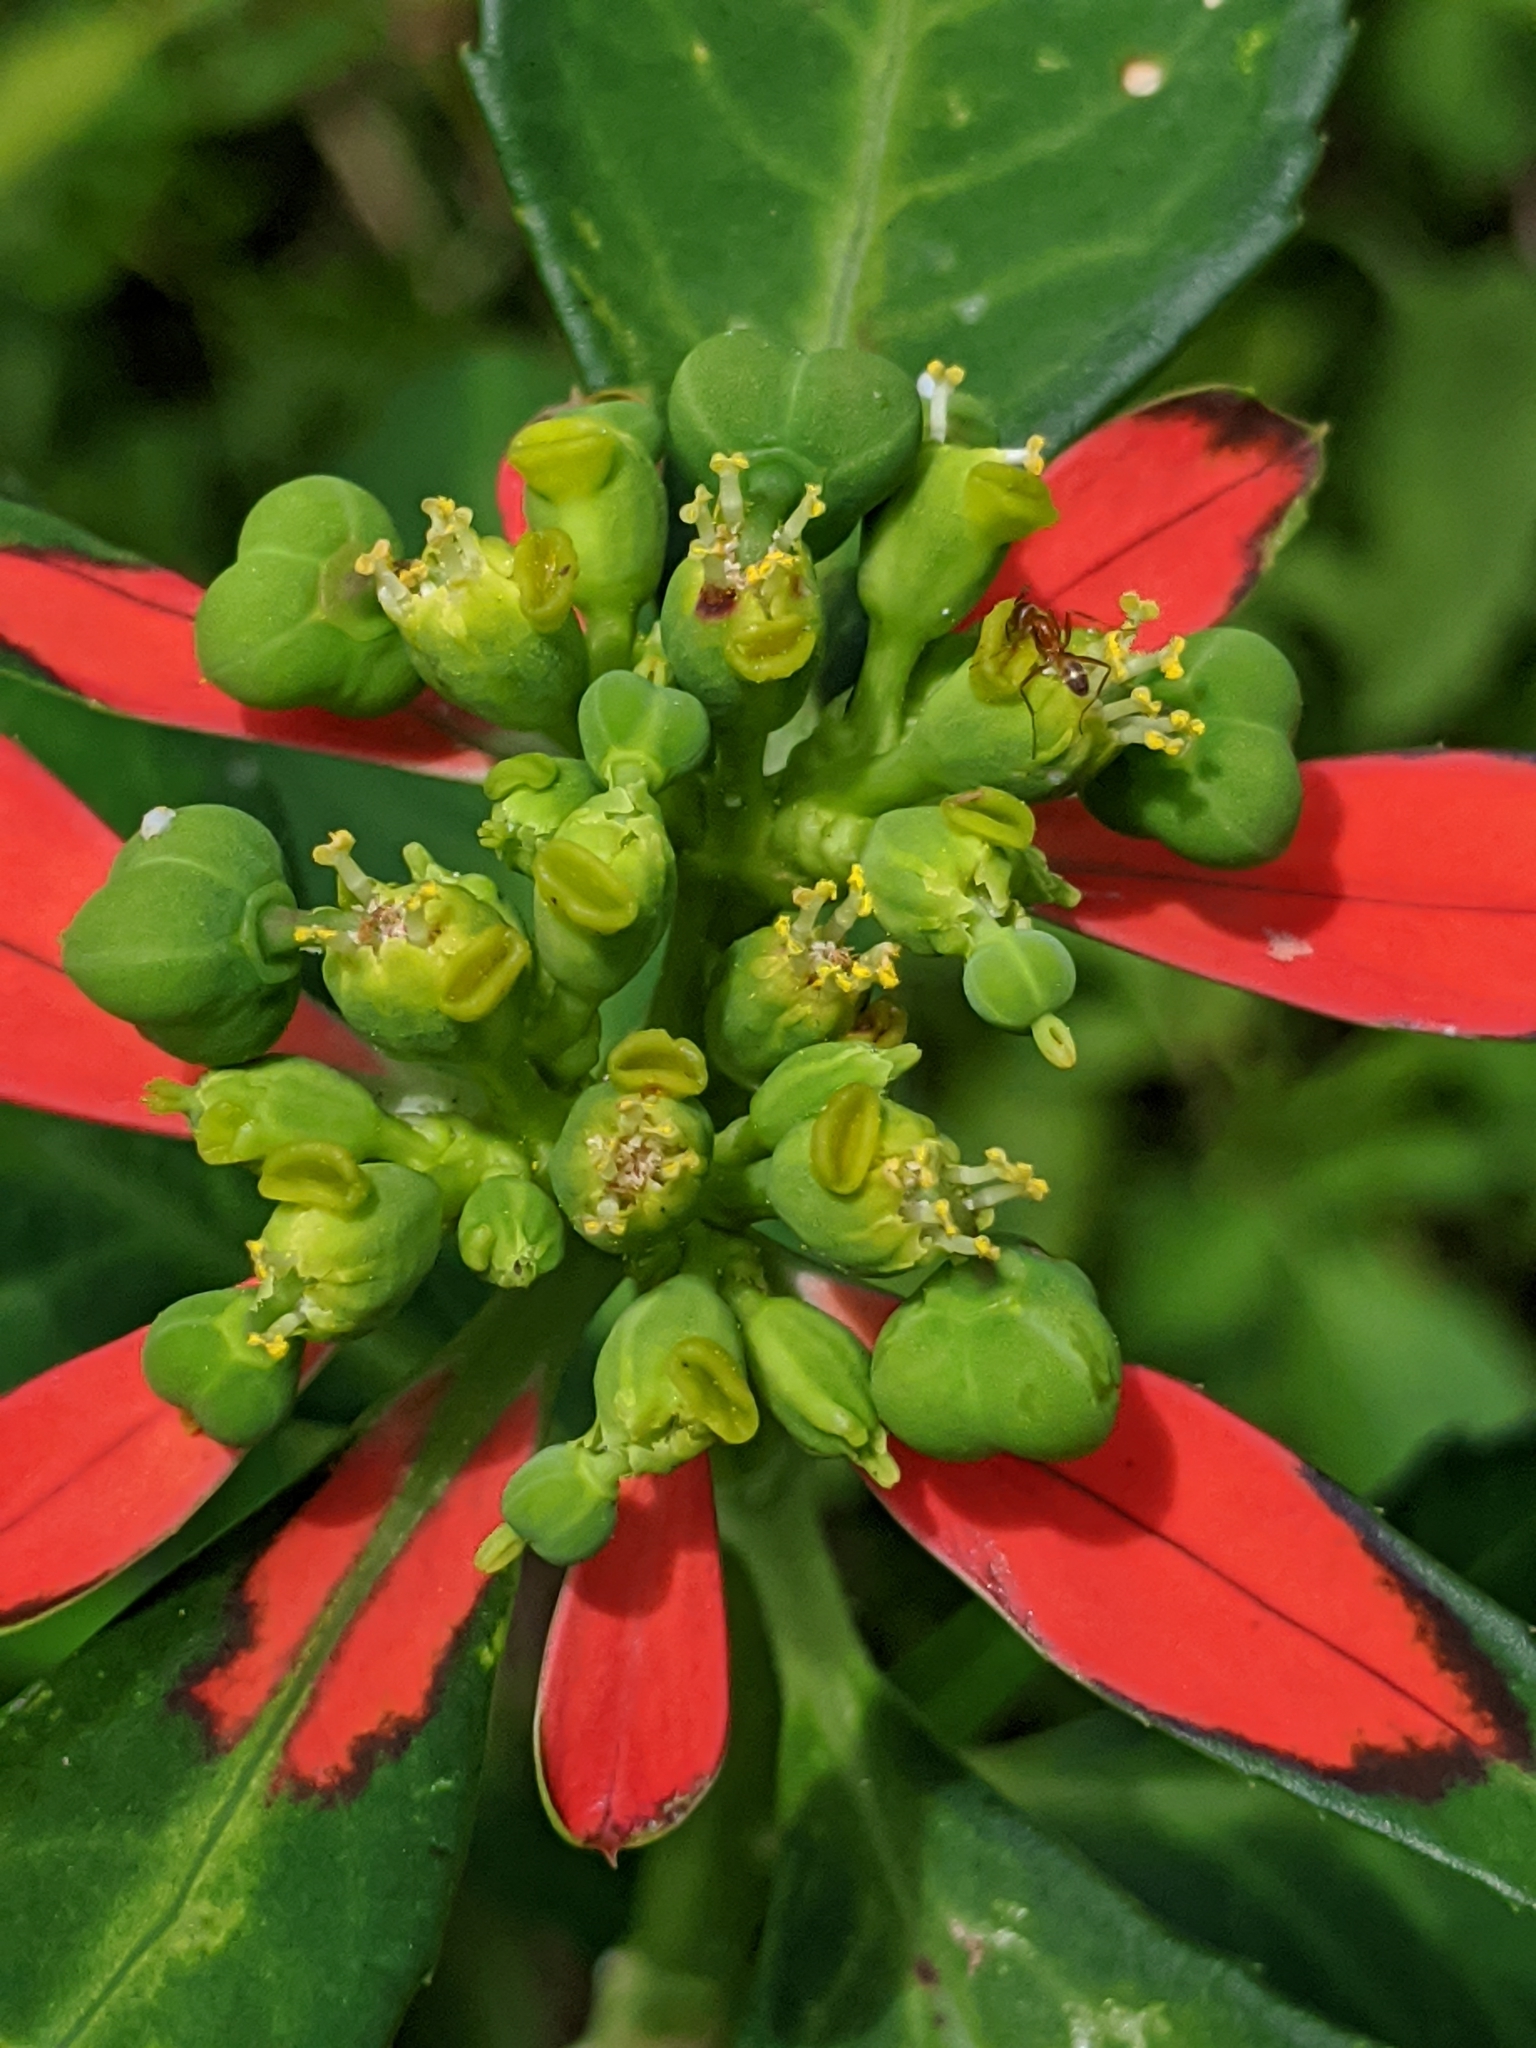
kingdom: Plantae
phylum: Tracheophyta
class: Magnoliopsida
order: Malpighiales
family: Euphorbiaceae
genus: Euphorbia
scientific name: Euphorbia heterophylla
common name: Mexican fireplant
